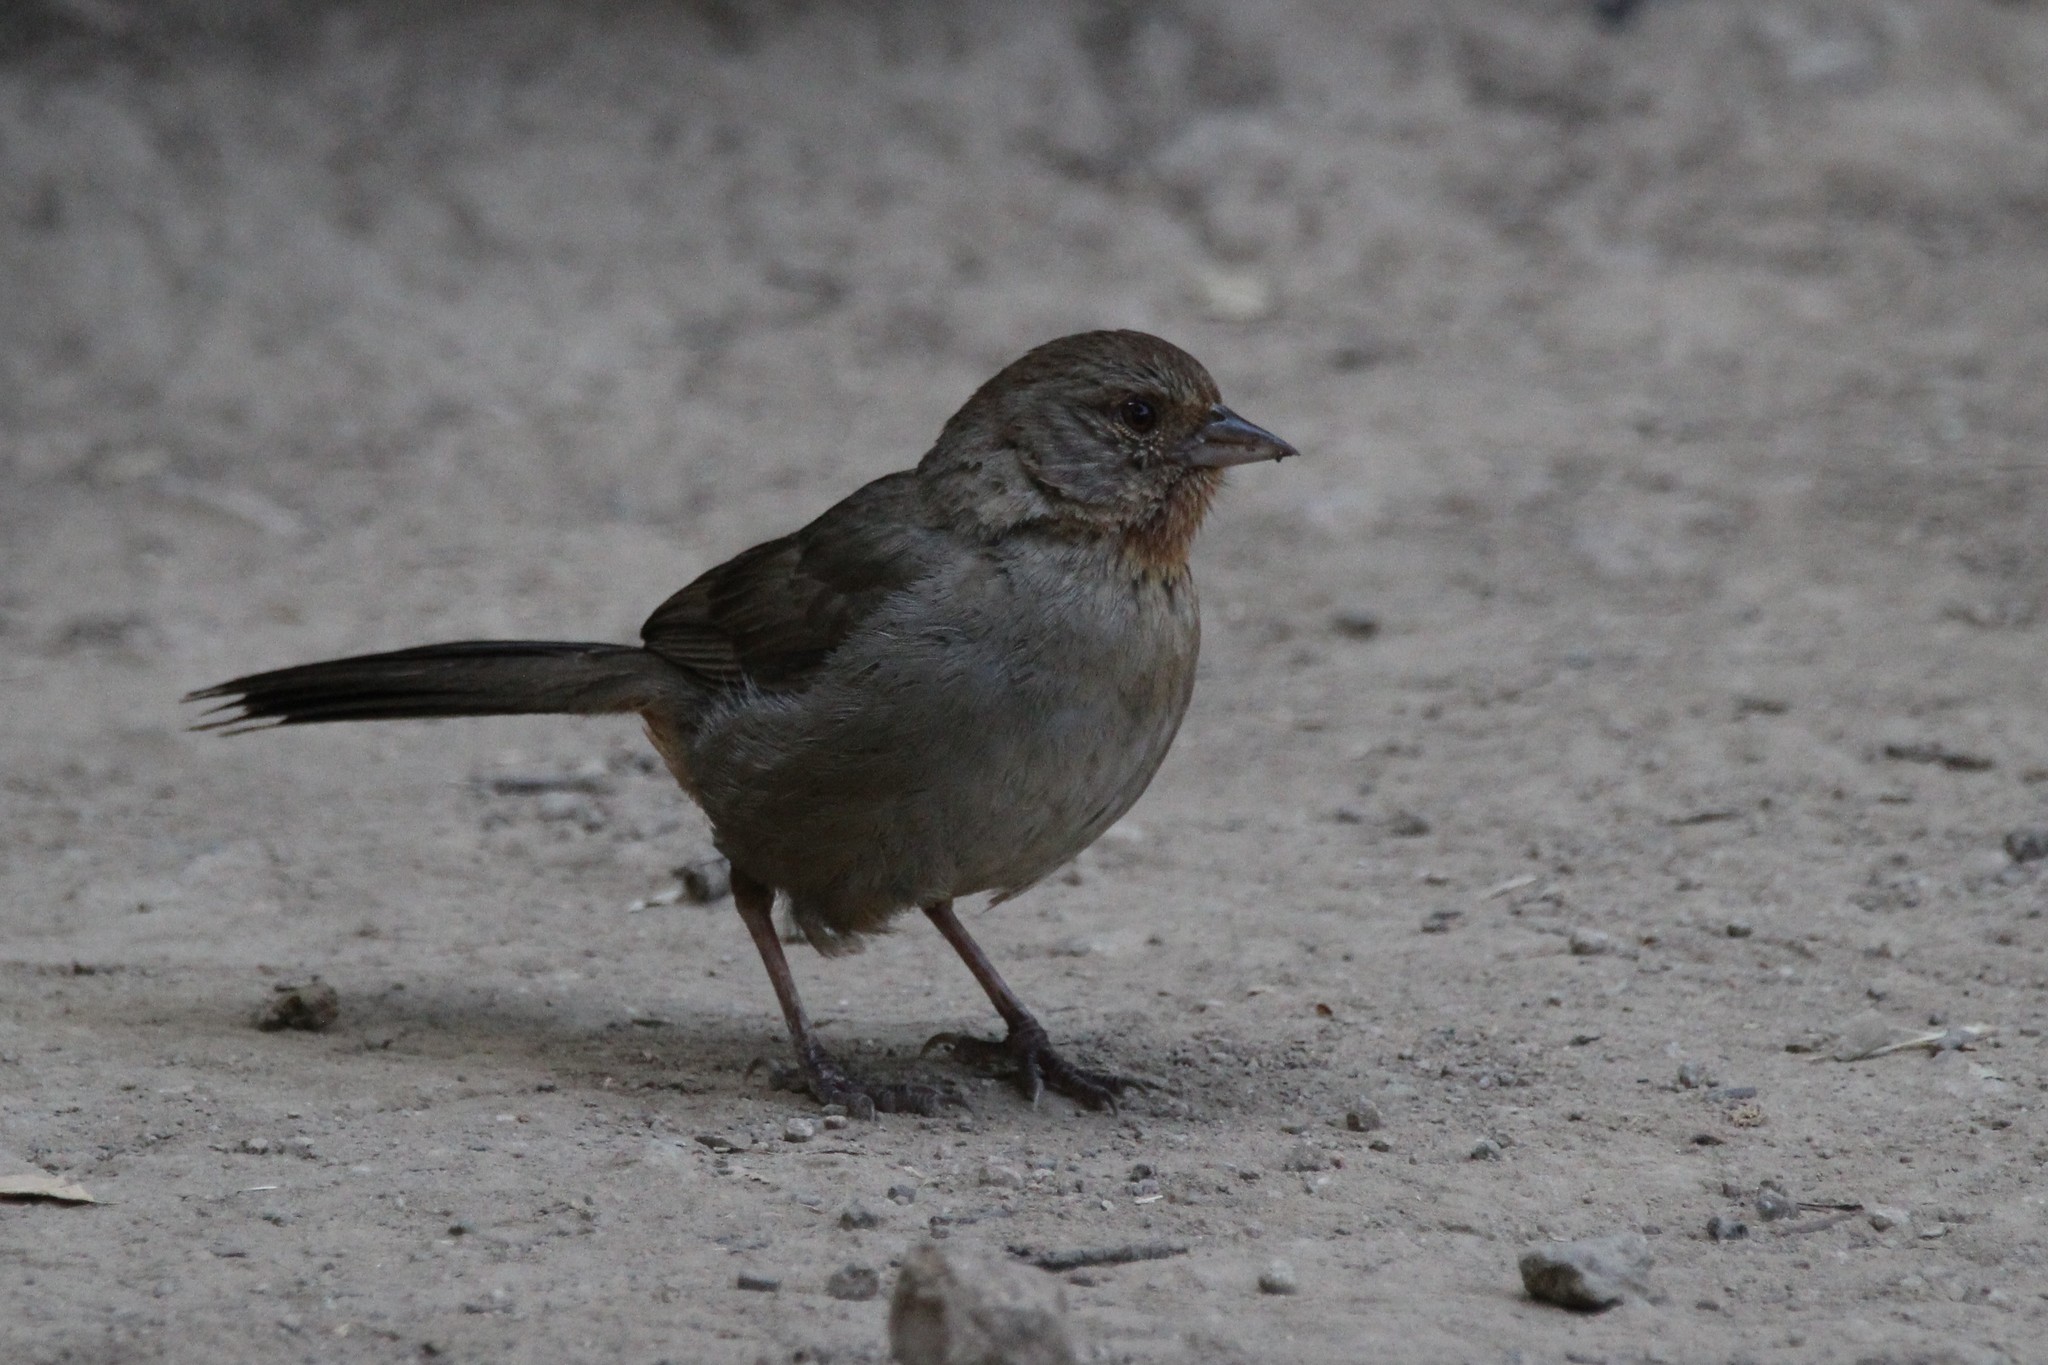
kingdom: Animalia
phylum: Chordata
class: Aves
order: Passeriformes
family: Passerellidae
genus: Melozone
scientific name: Melozone crissalis
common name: California towhee
